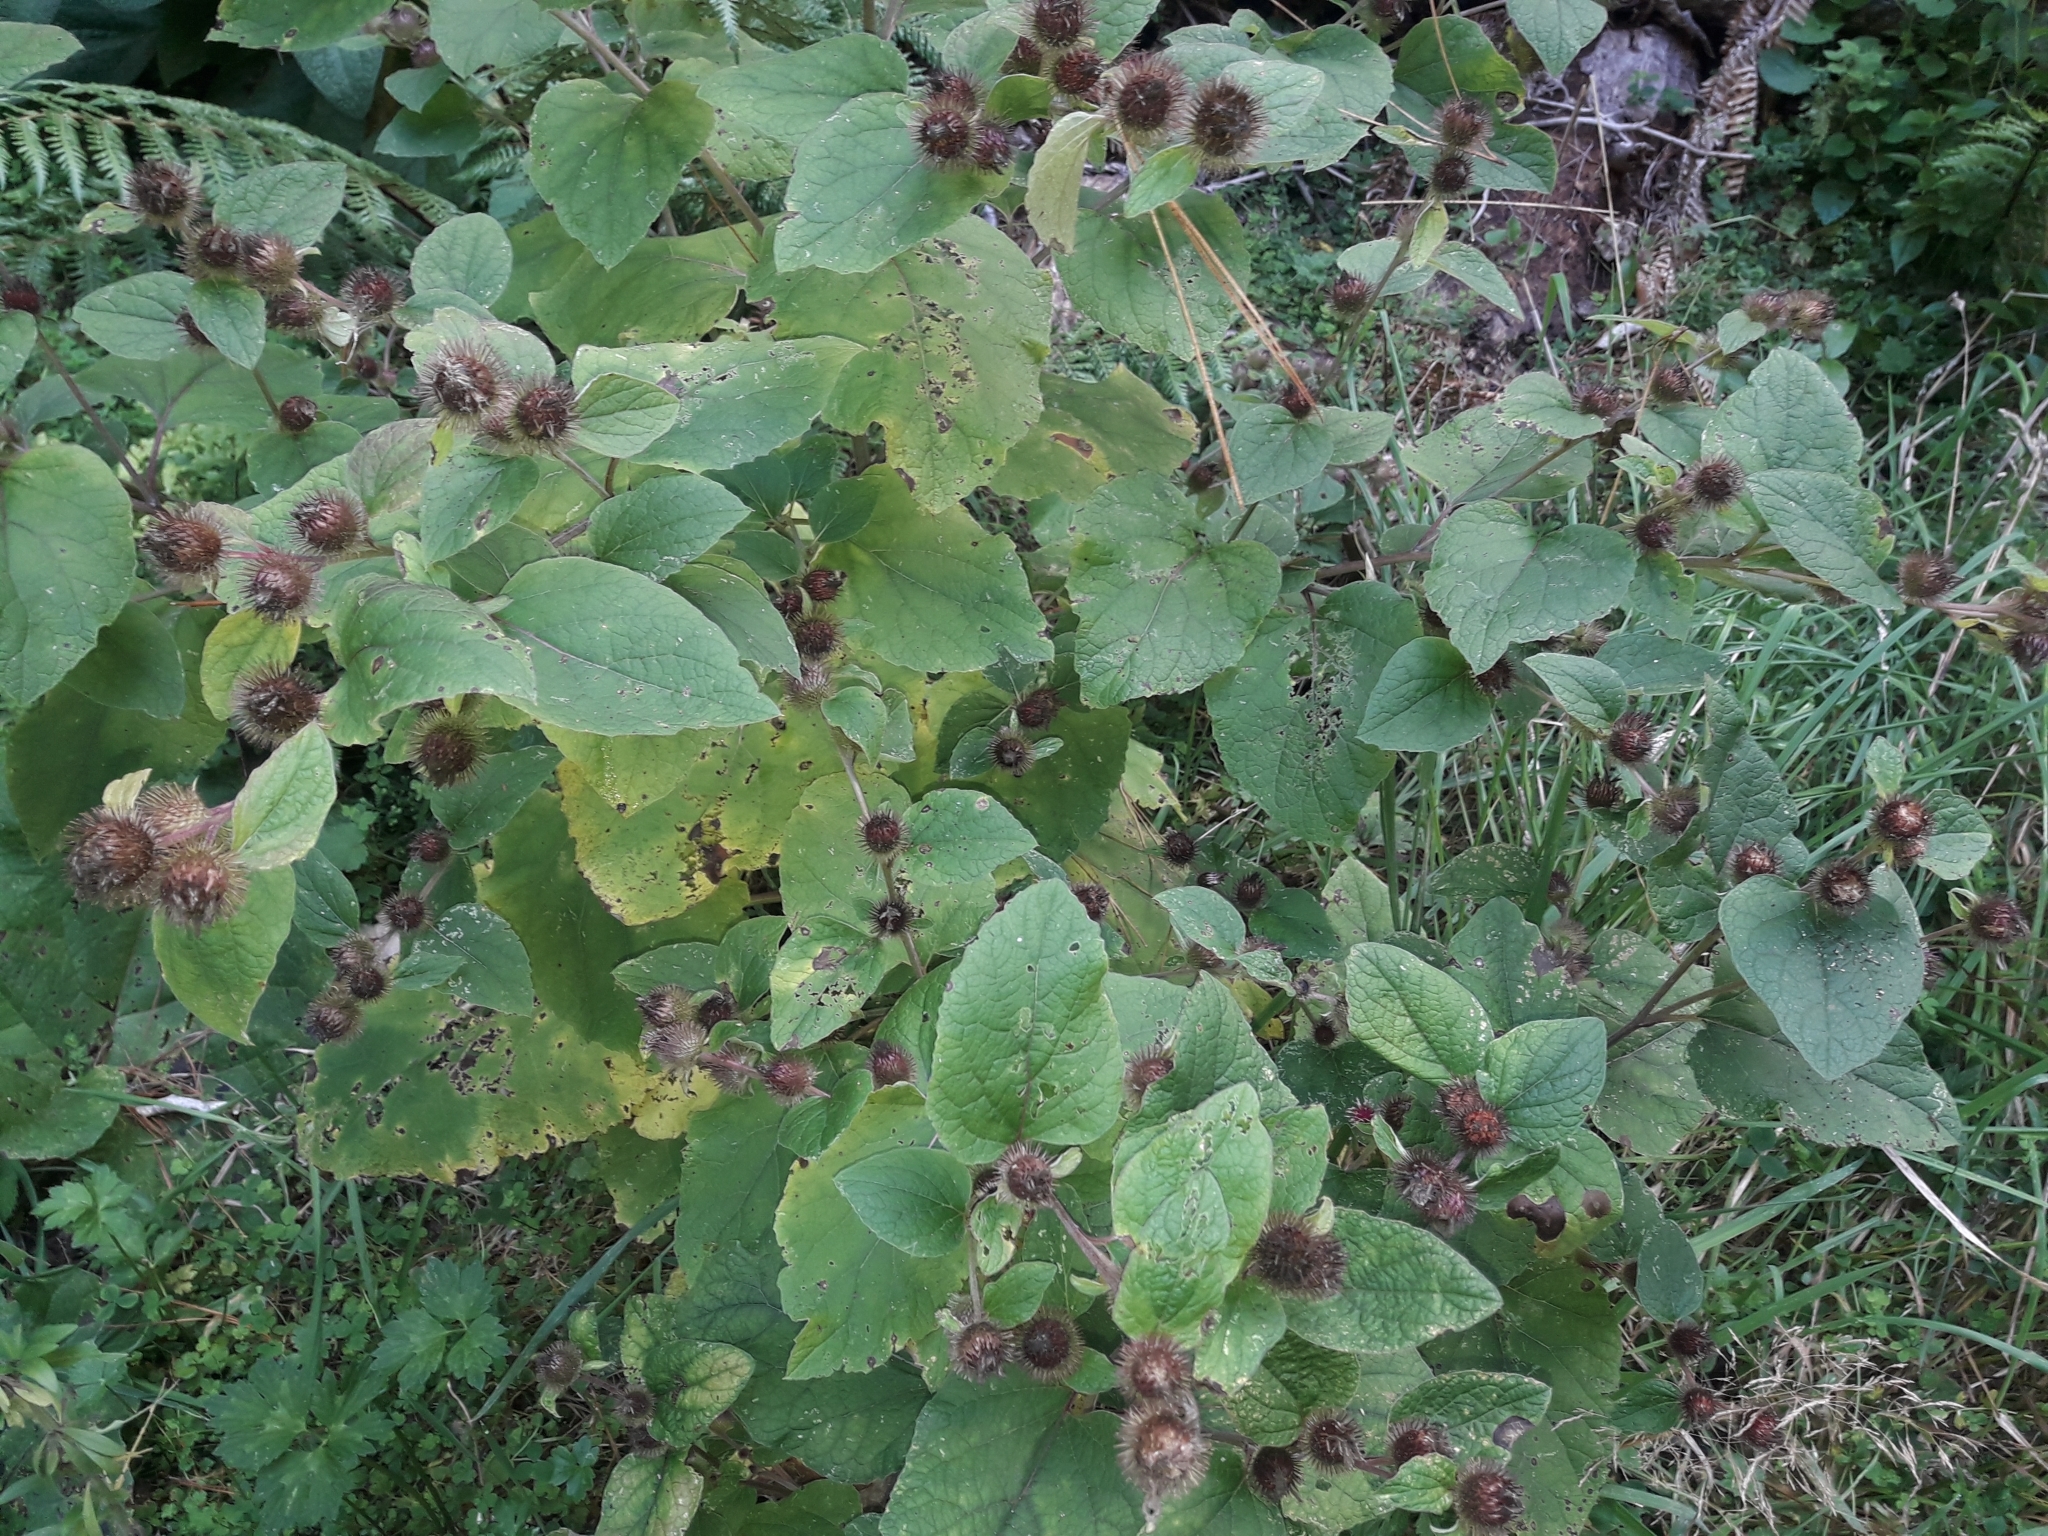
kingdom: Plantae
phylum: Tracheophyta
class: Magnoliopsida
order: Asterales
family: Asteraceae
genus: Arctium
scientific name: Arctium minus
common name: Lesser burdock
